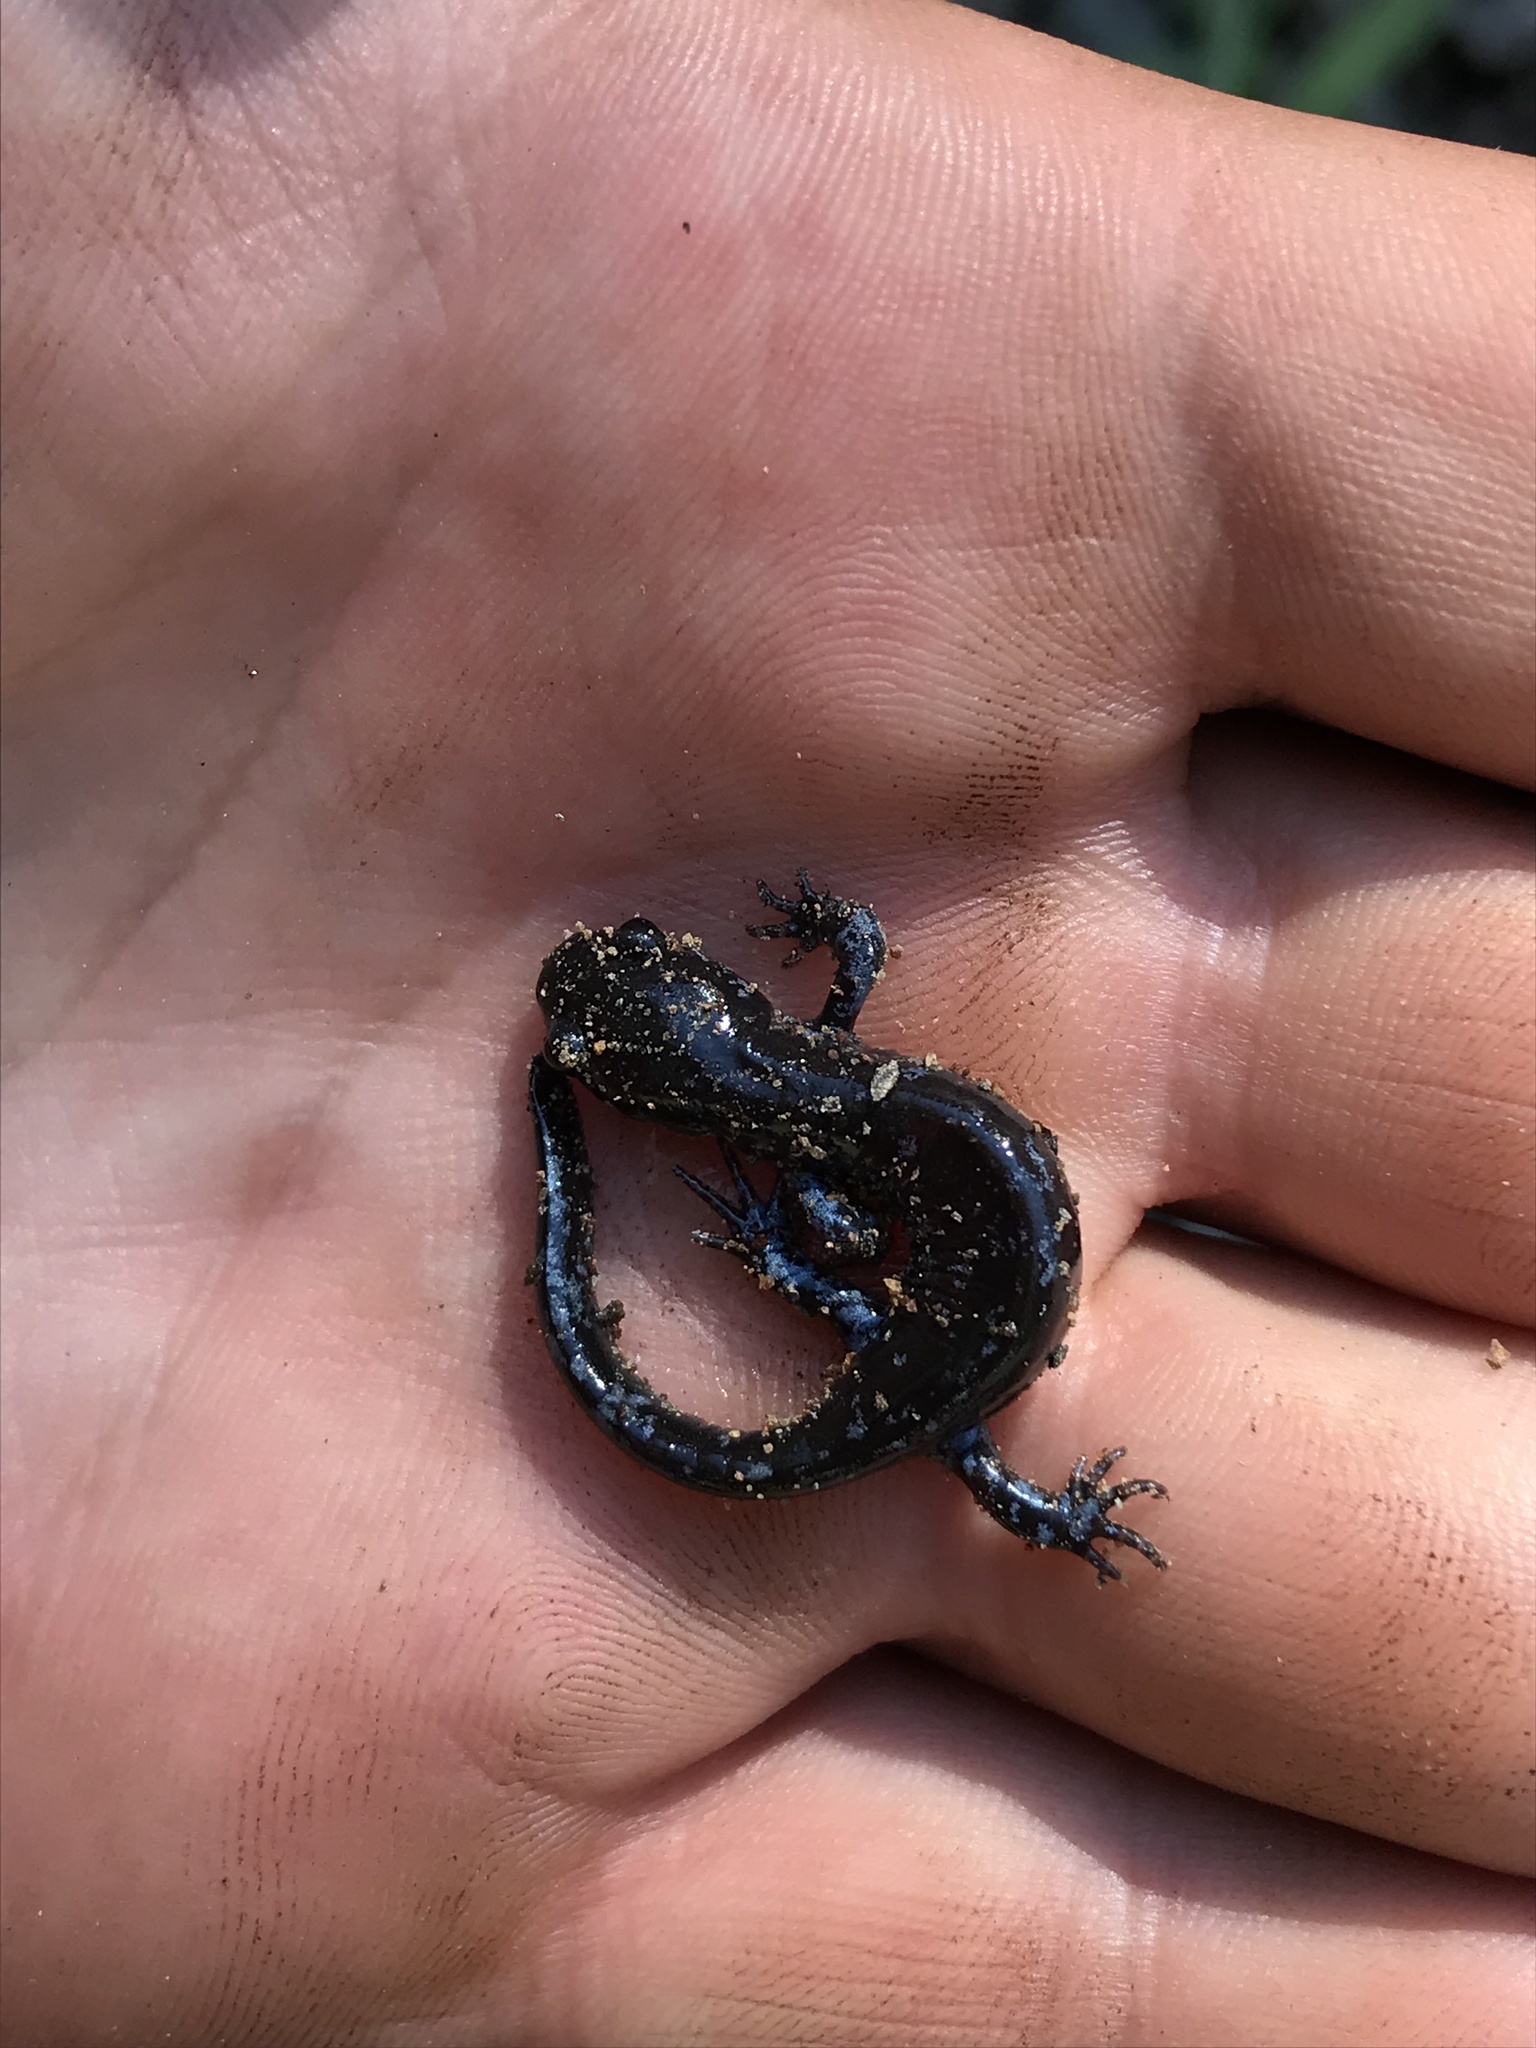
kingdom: Animalia
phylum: Chordata
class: Amphibia
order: Caudata
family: Ambystomatidae
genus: Ambystoma
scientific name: Ambystoma laterale
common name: Blue-spotted salamander
